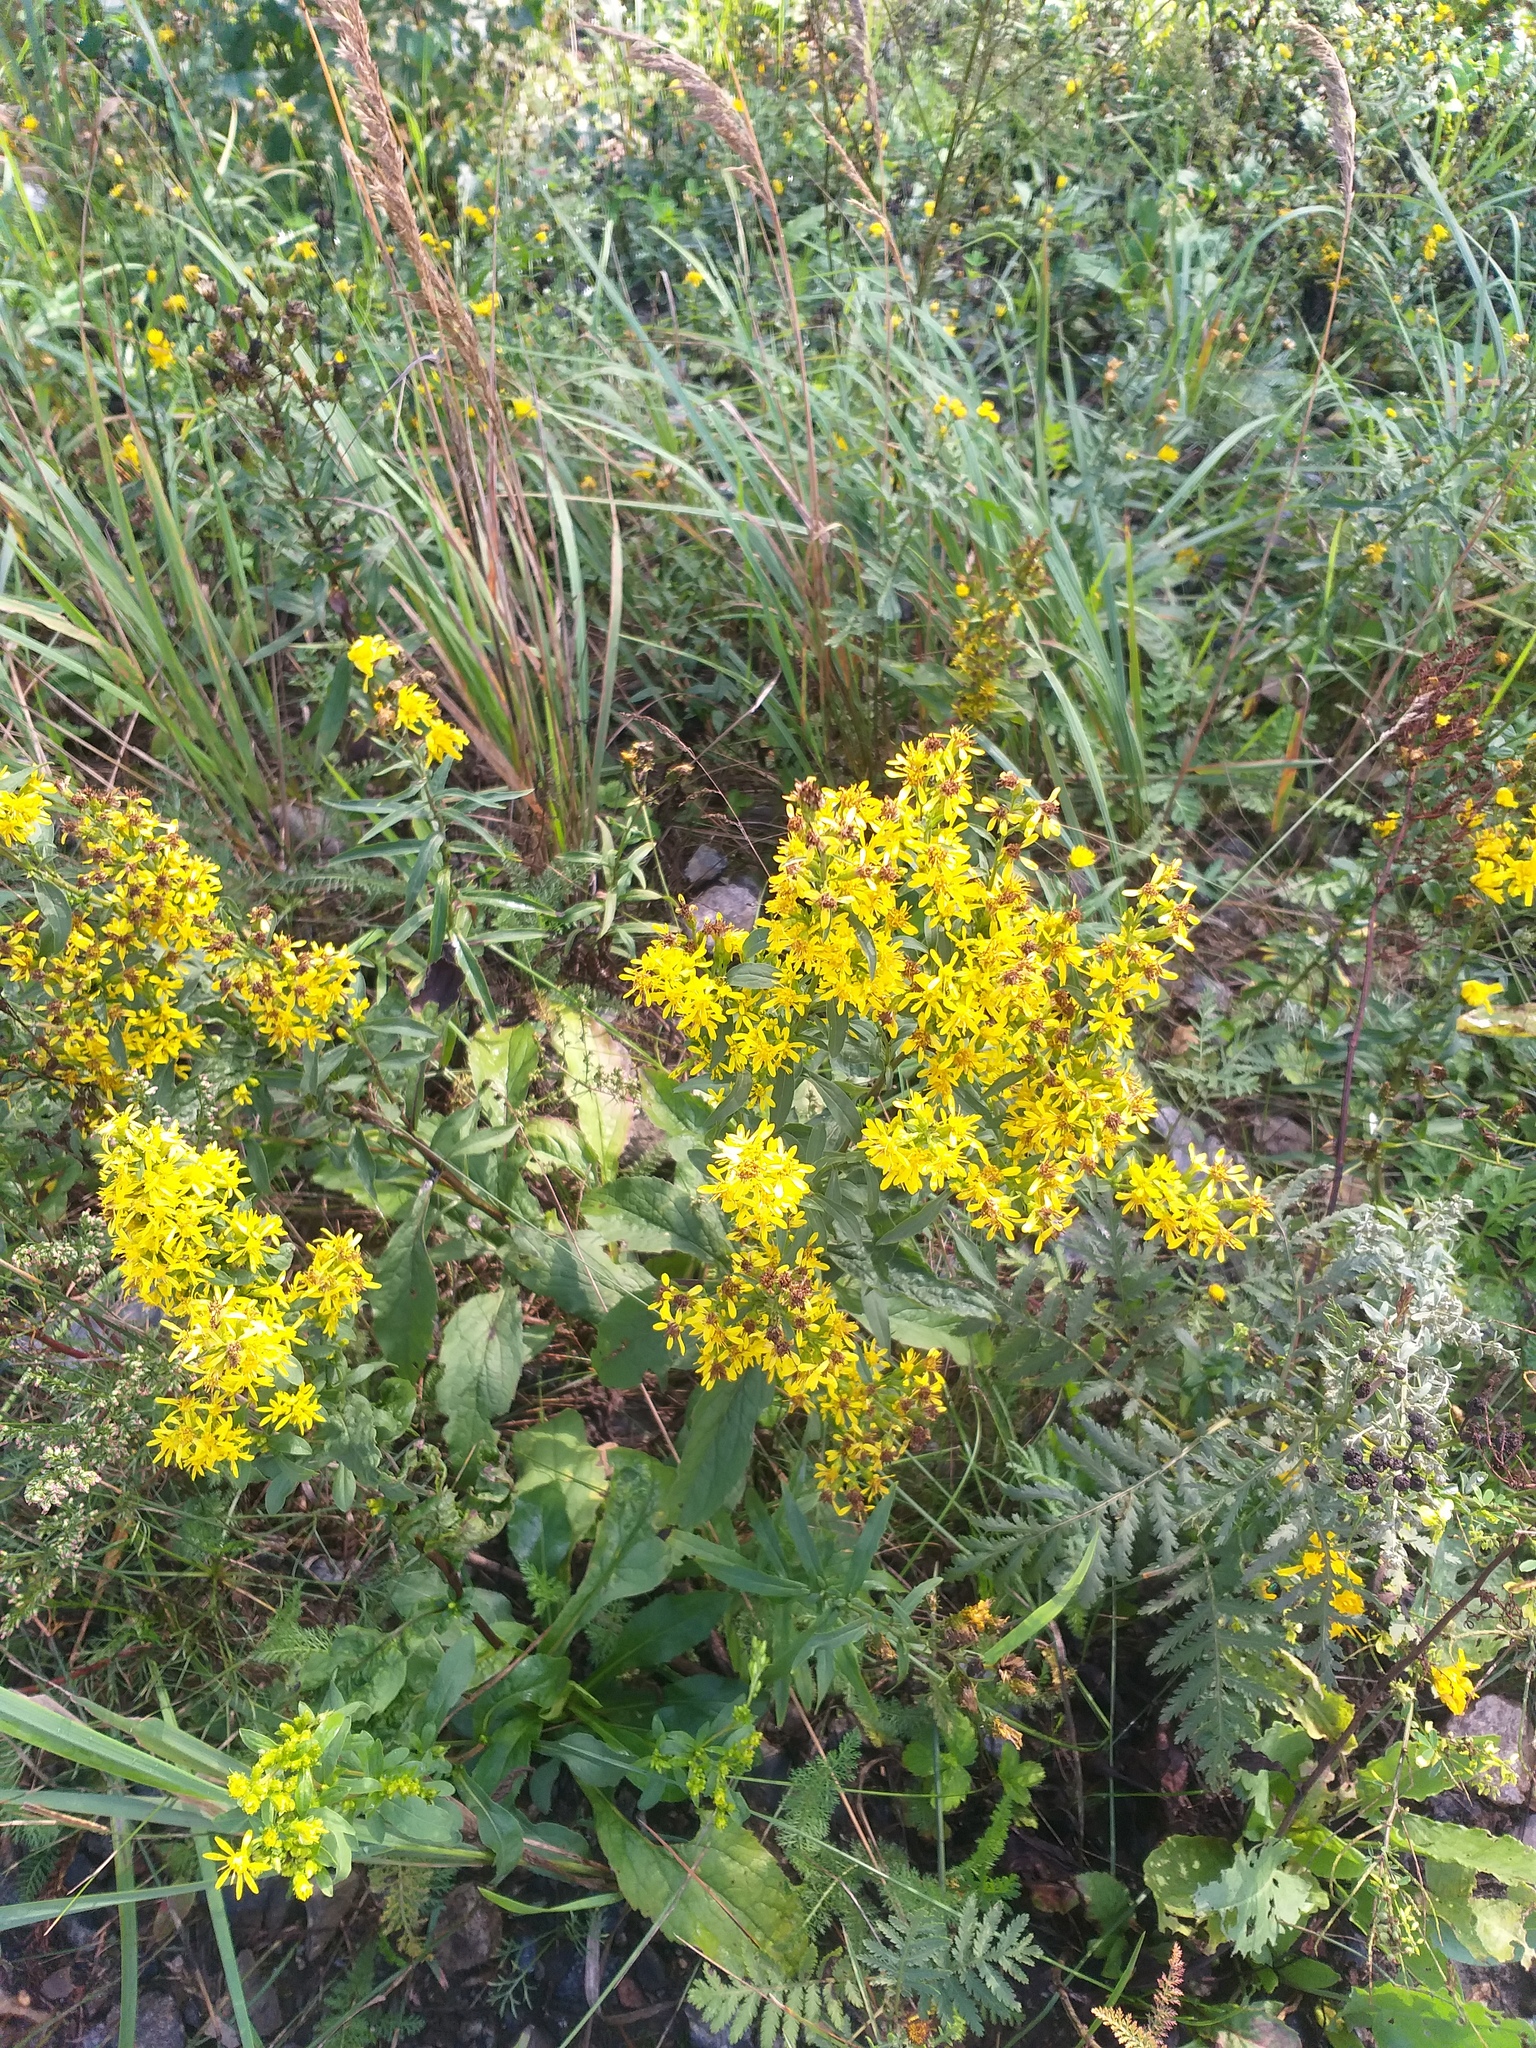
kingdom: Plantae
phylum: Tracheophyta
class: Magnoliopsida
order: Asterales
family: Asteraceae
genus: Solidago
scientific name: Solidago virgaurea
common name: Goldenrod
